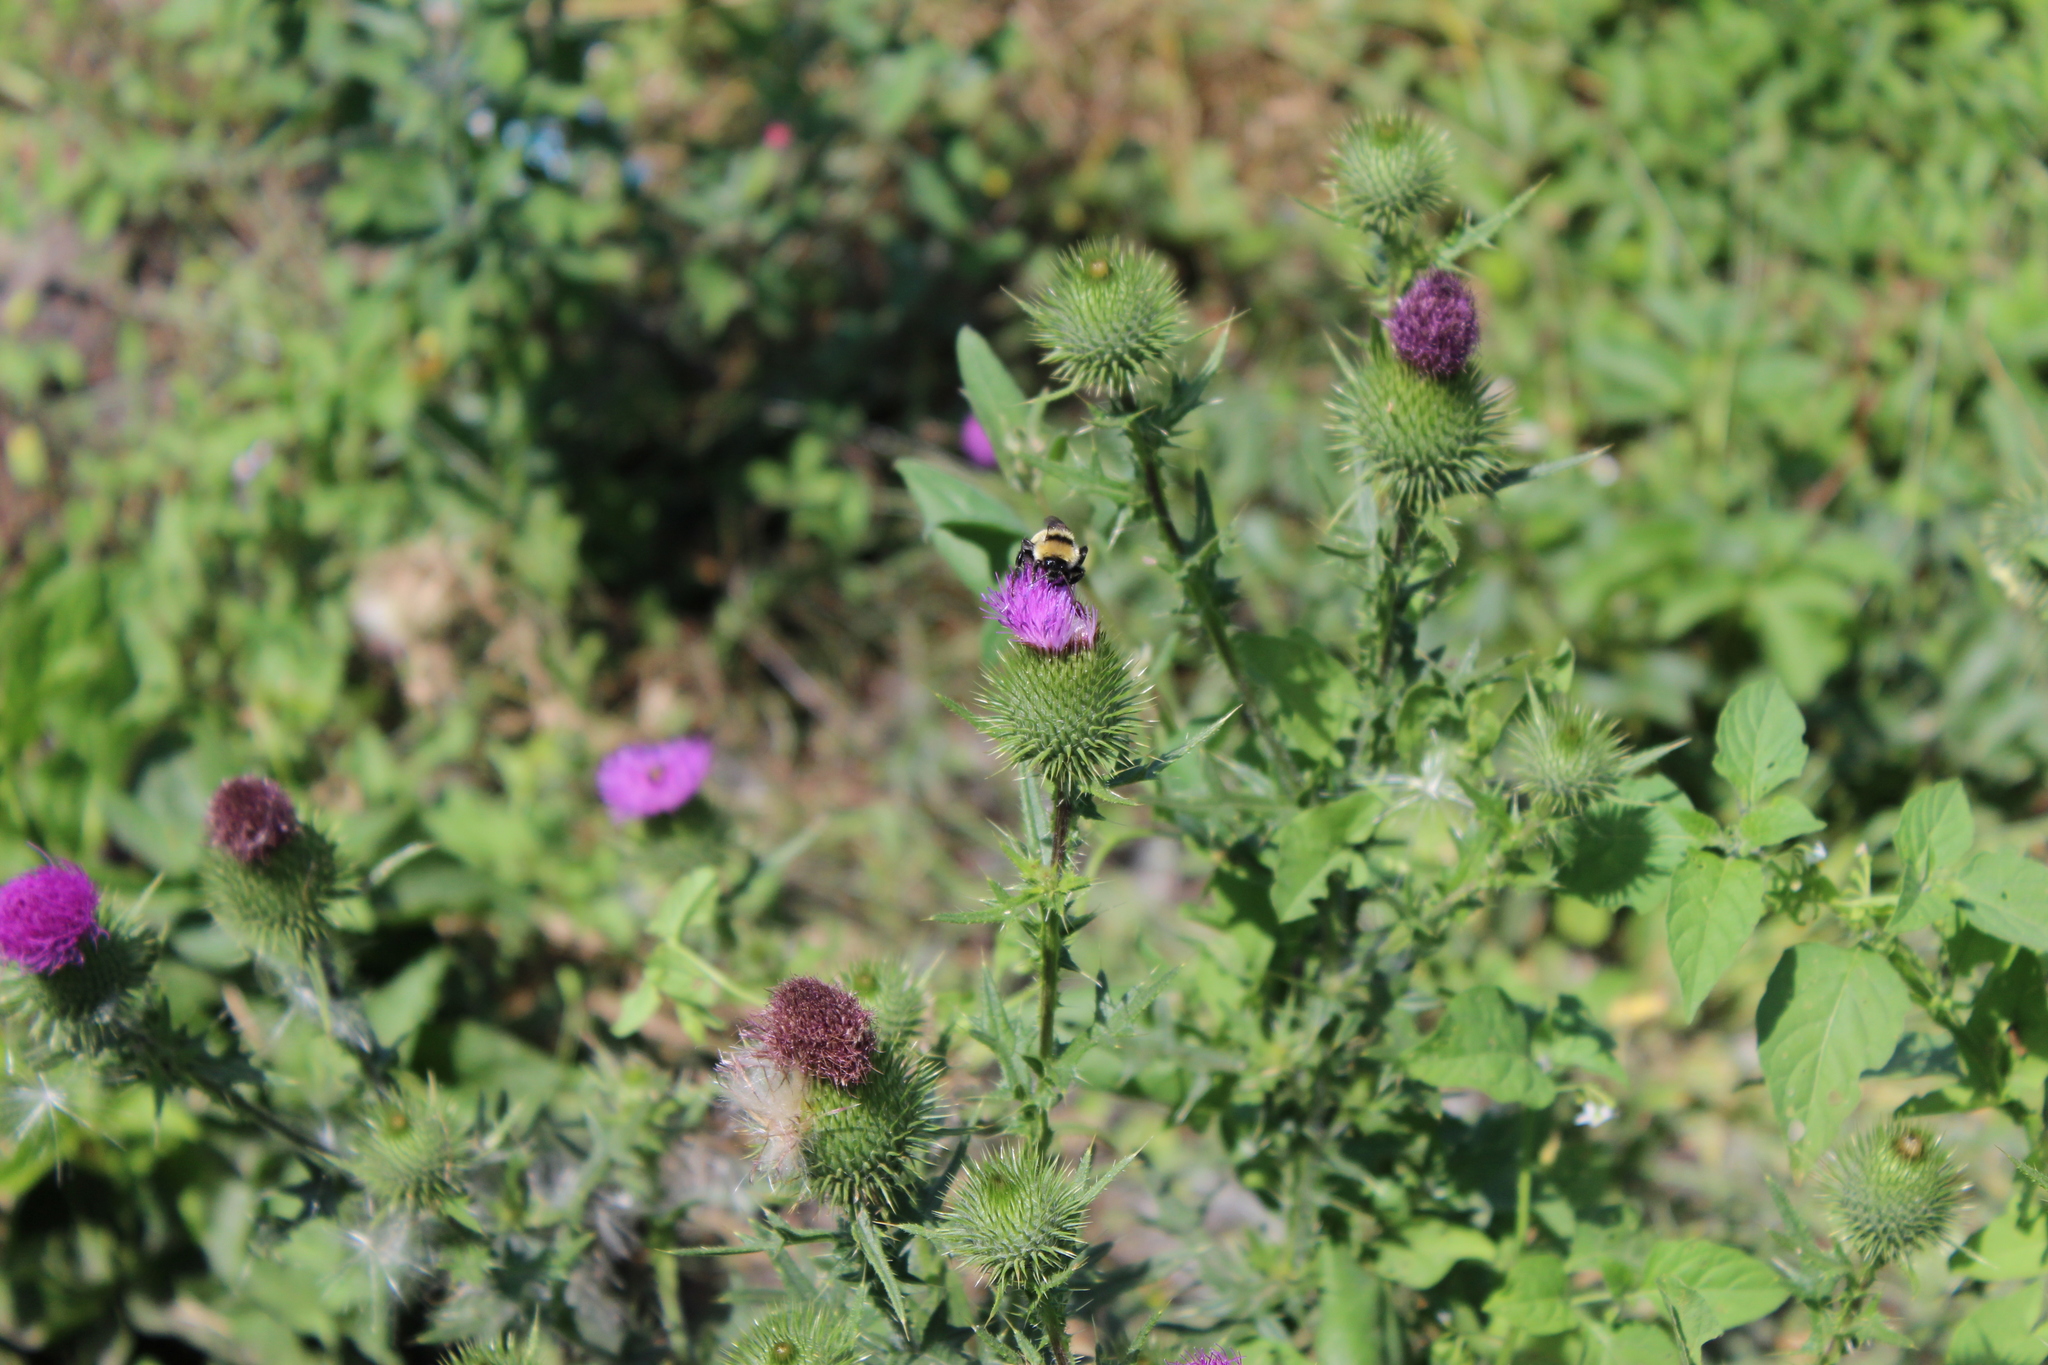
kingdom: Plantae
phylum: Tracheophyta
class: Magnoliopsida
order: Asterales
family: Asteraceae
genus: Cirsium
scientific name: Cirsium vulgare
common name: Bull thistle
